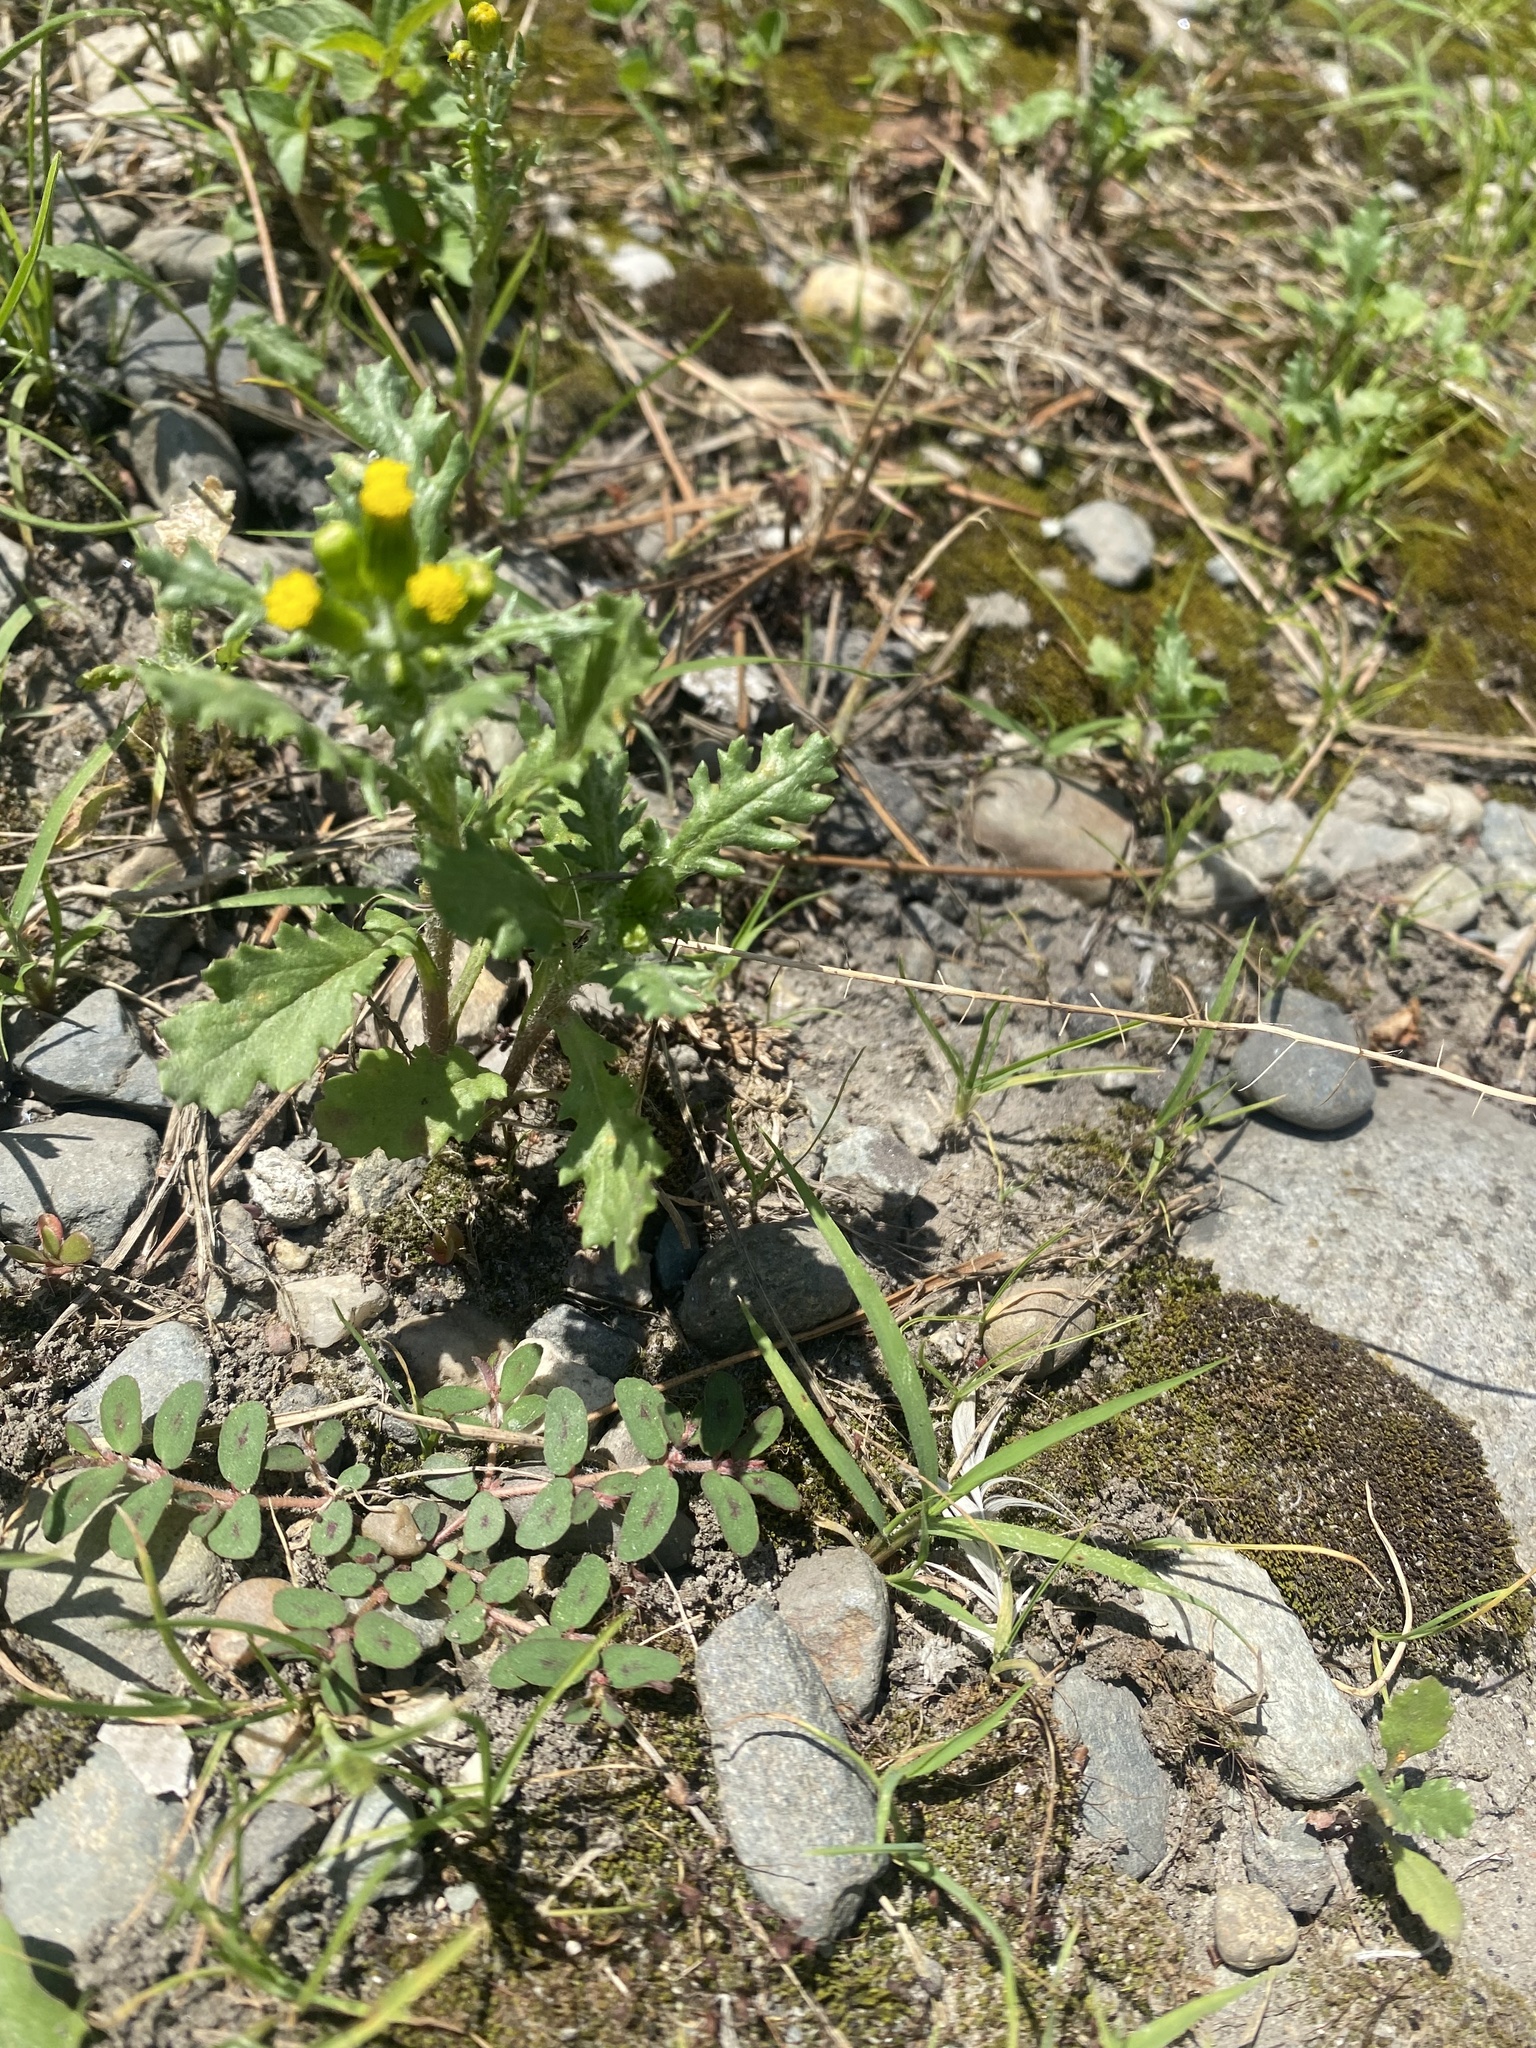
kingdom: Plantae
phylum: Tracheophyta
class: Magnoliopsida
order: Asterales
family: Asteraceae
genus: Senecio
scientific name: Senecio vulgaris
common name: Old-man-in-the-spring
